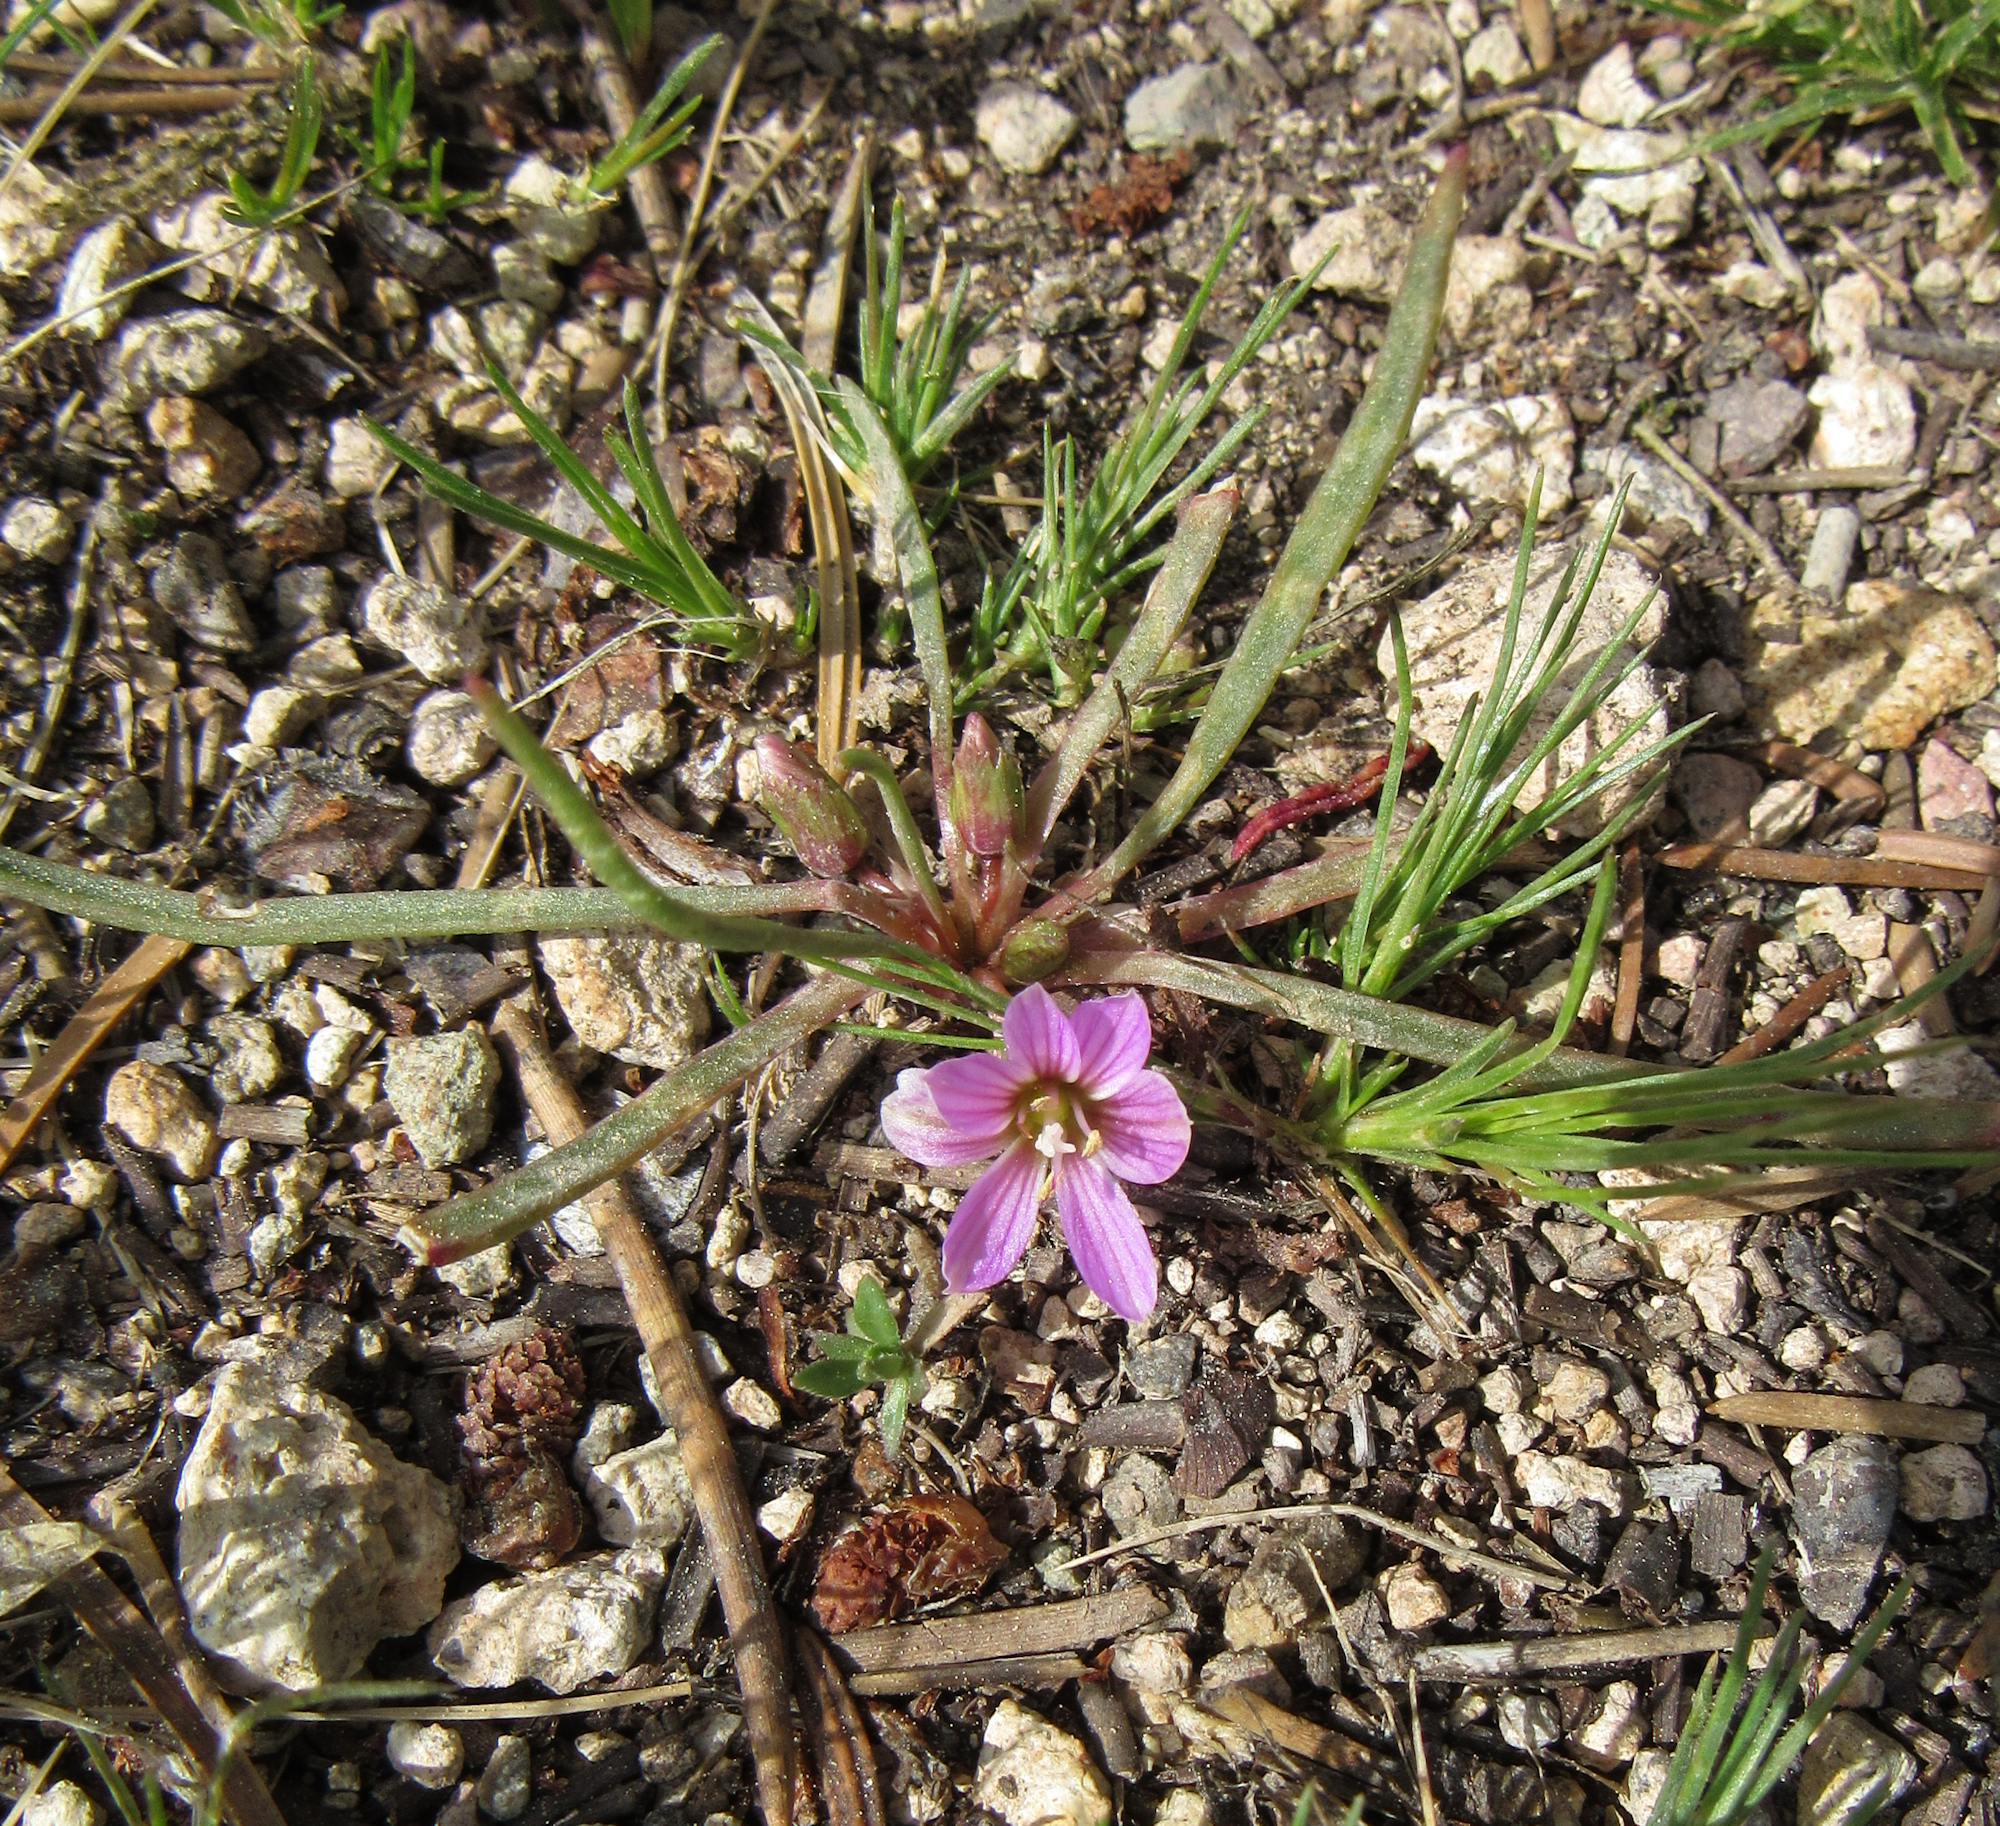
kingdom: Plantae
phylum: Tracheophyta
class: Magnoliopsida
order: Caryophyllales
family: Montiaceae
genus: Lewisia
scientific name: Lewisia pygmaea
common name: Alpine bitterroot
